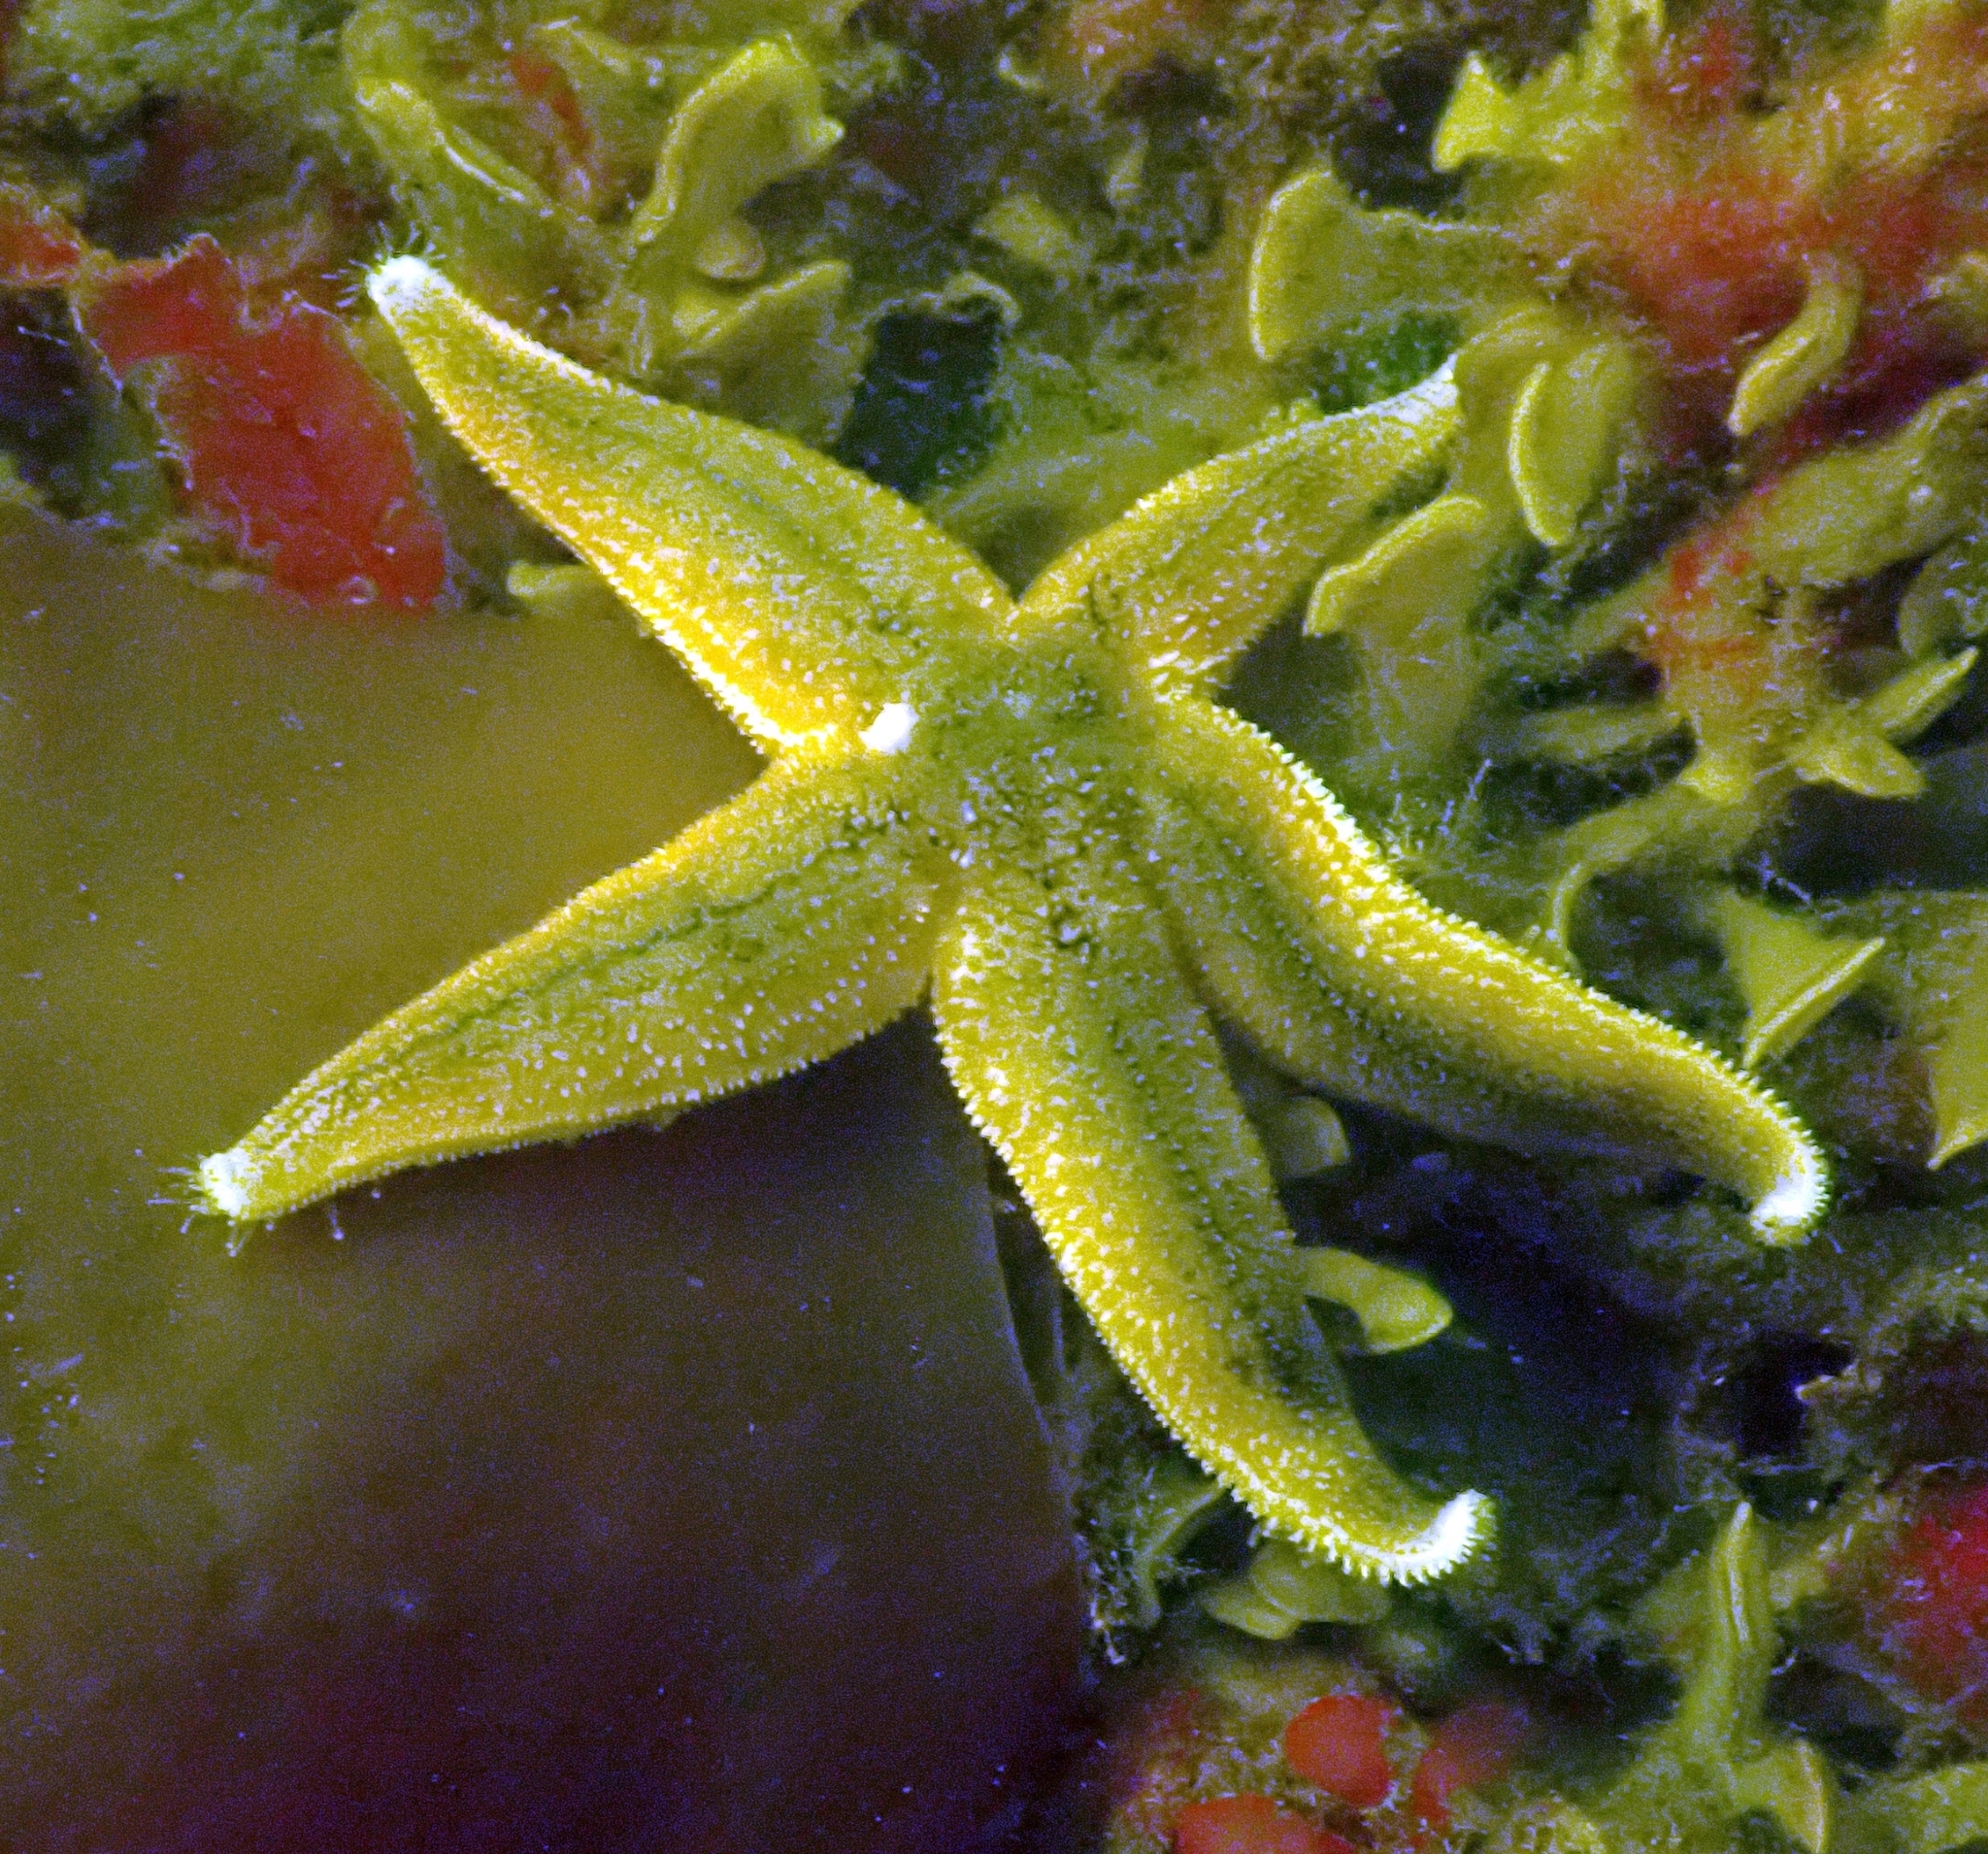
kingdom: Animalia
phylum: Echinodermata
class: Asteroidea
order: Forcipulatida
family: Asteriidae
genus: Asterias
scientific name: Asterias rubens
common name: Common starfish
